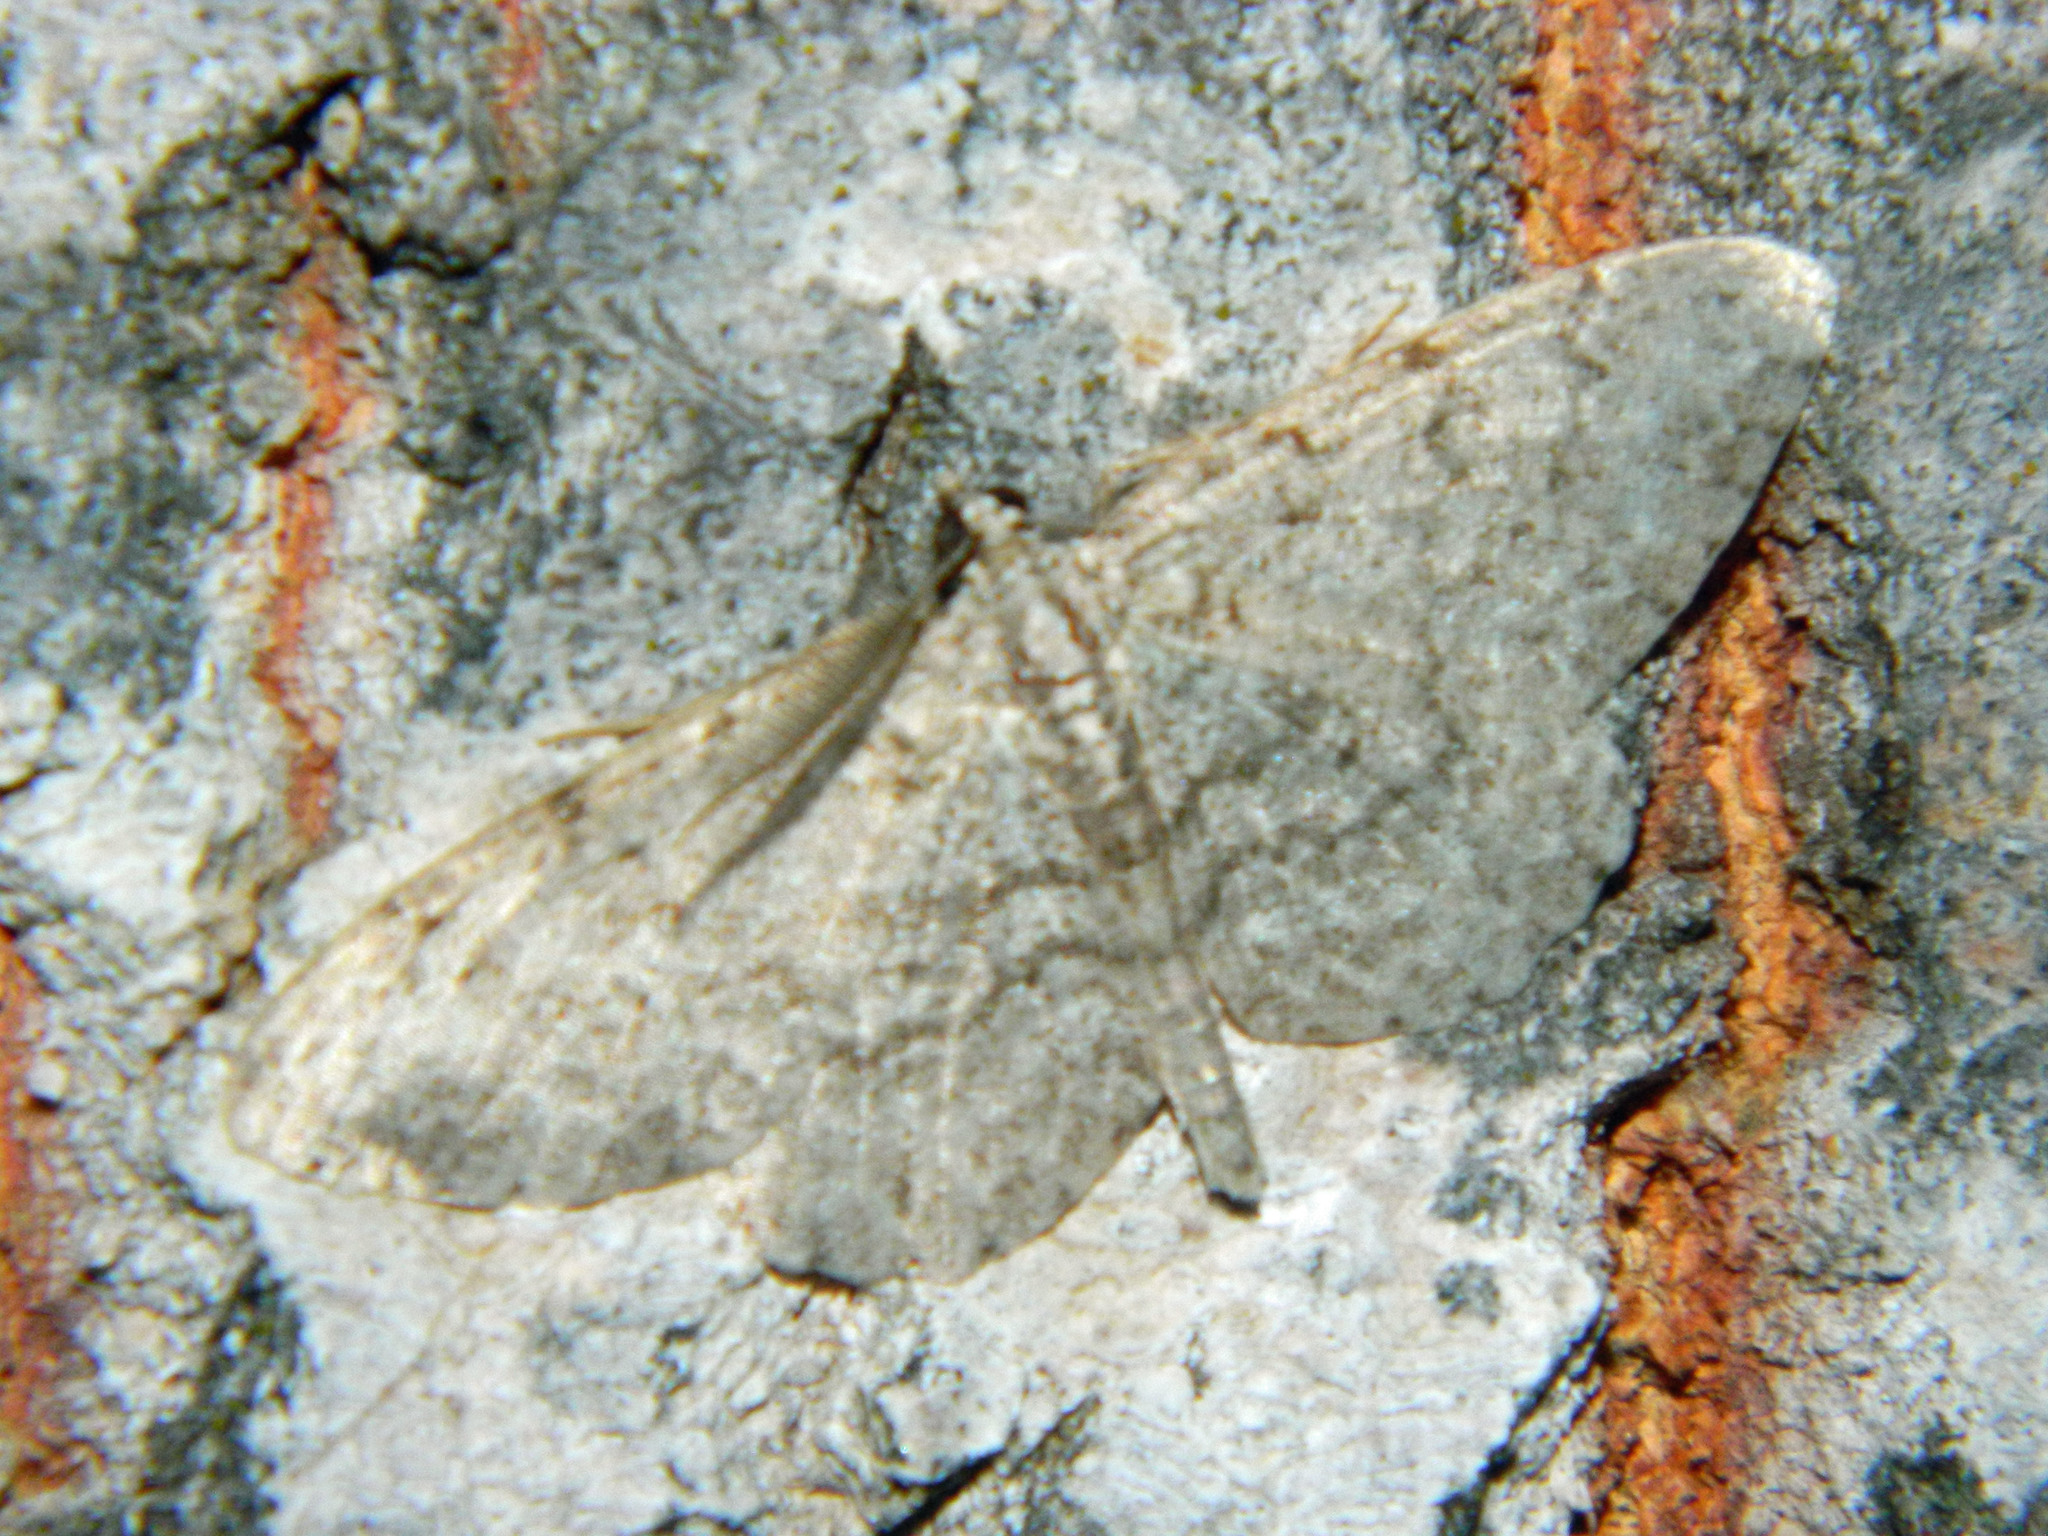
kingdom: Animalia
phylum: Arthropoda
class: Insecta
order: Lepidoptera
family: Geometridae
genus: Protoboarmia
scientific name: Protoboarmia porcelaria
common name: Porcelain gray
